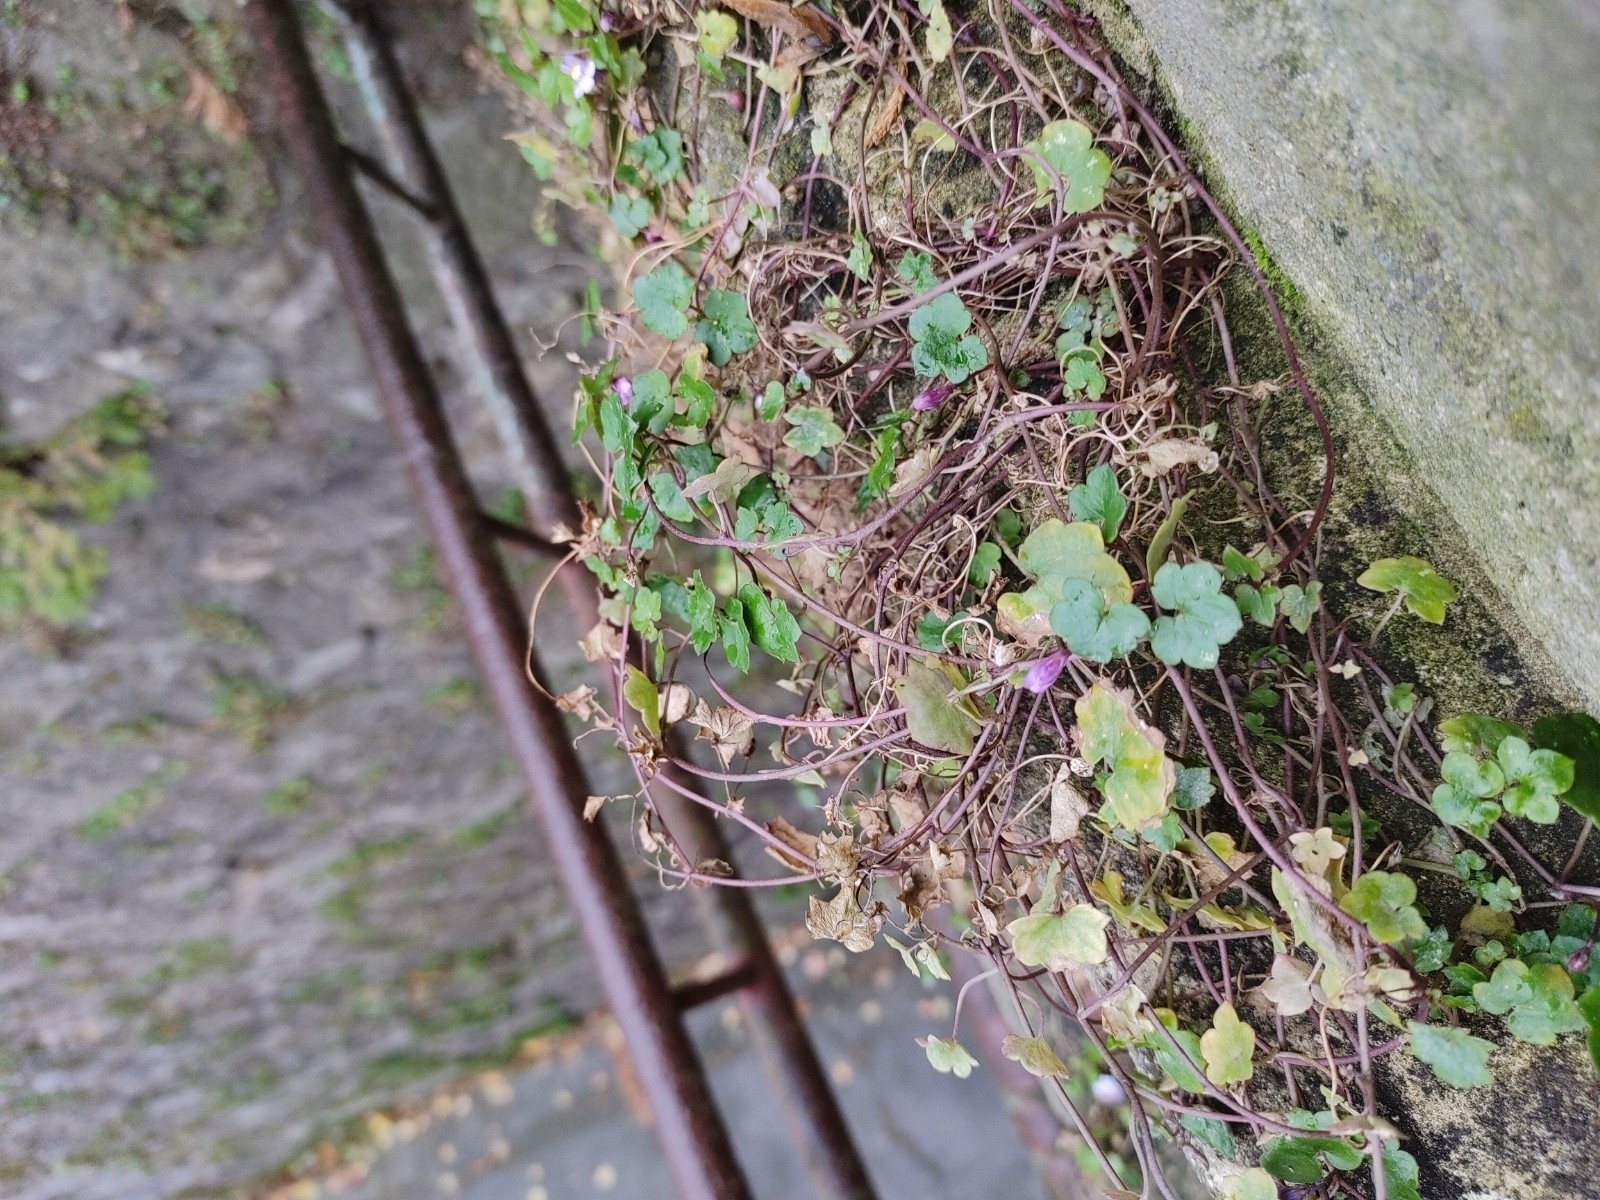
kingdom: Plantae
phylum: Tracheophyta
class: Magnoliopsida
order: Lamiales
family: Plantaginaceae
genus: Cymbalaria
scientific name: Cymbalaria muralis
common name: Ivy-leaved toadflax
